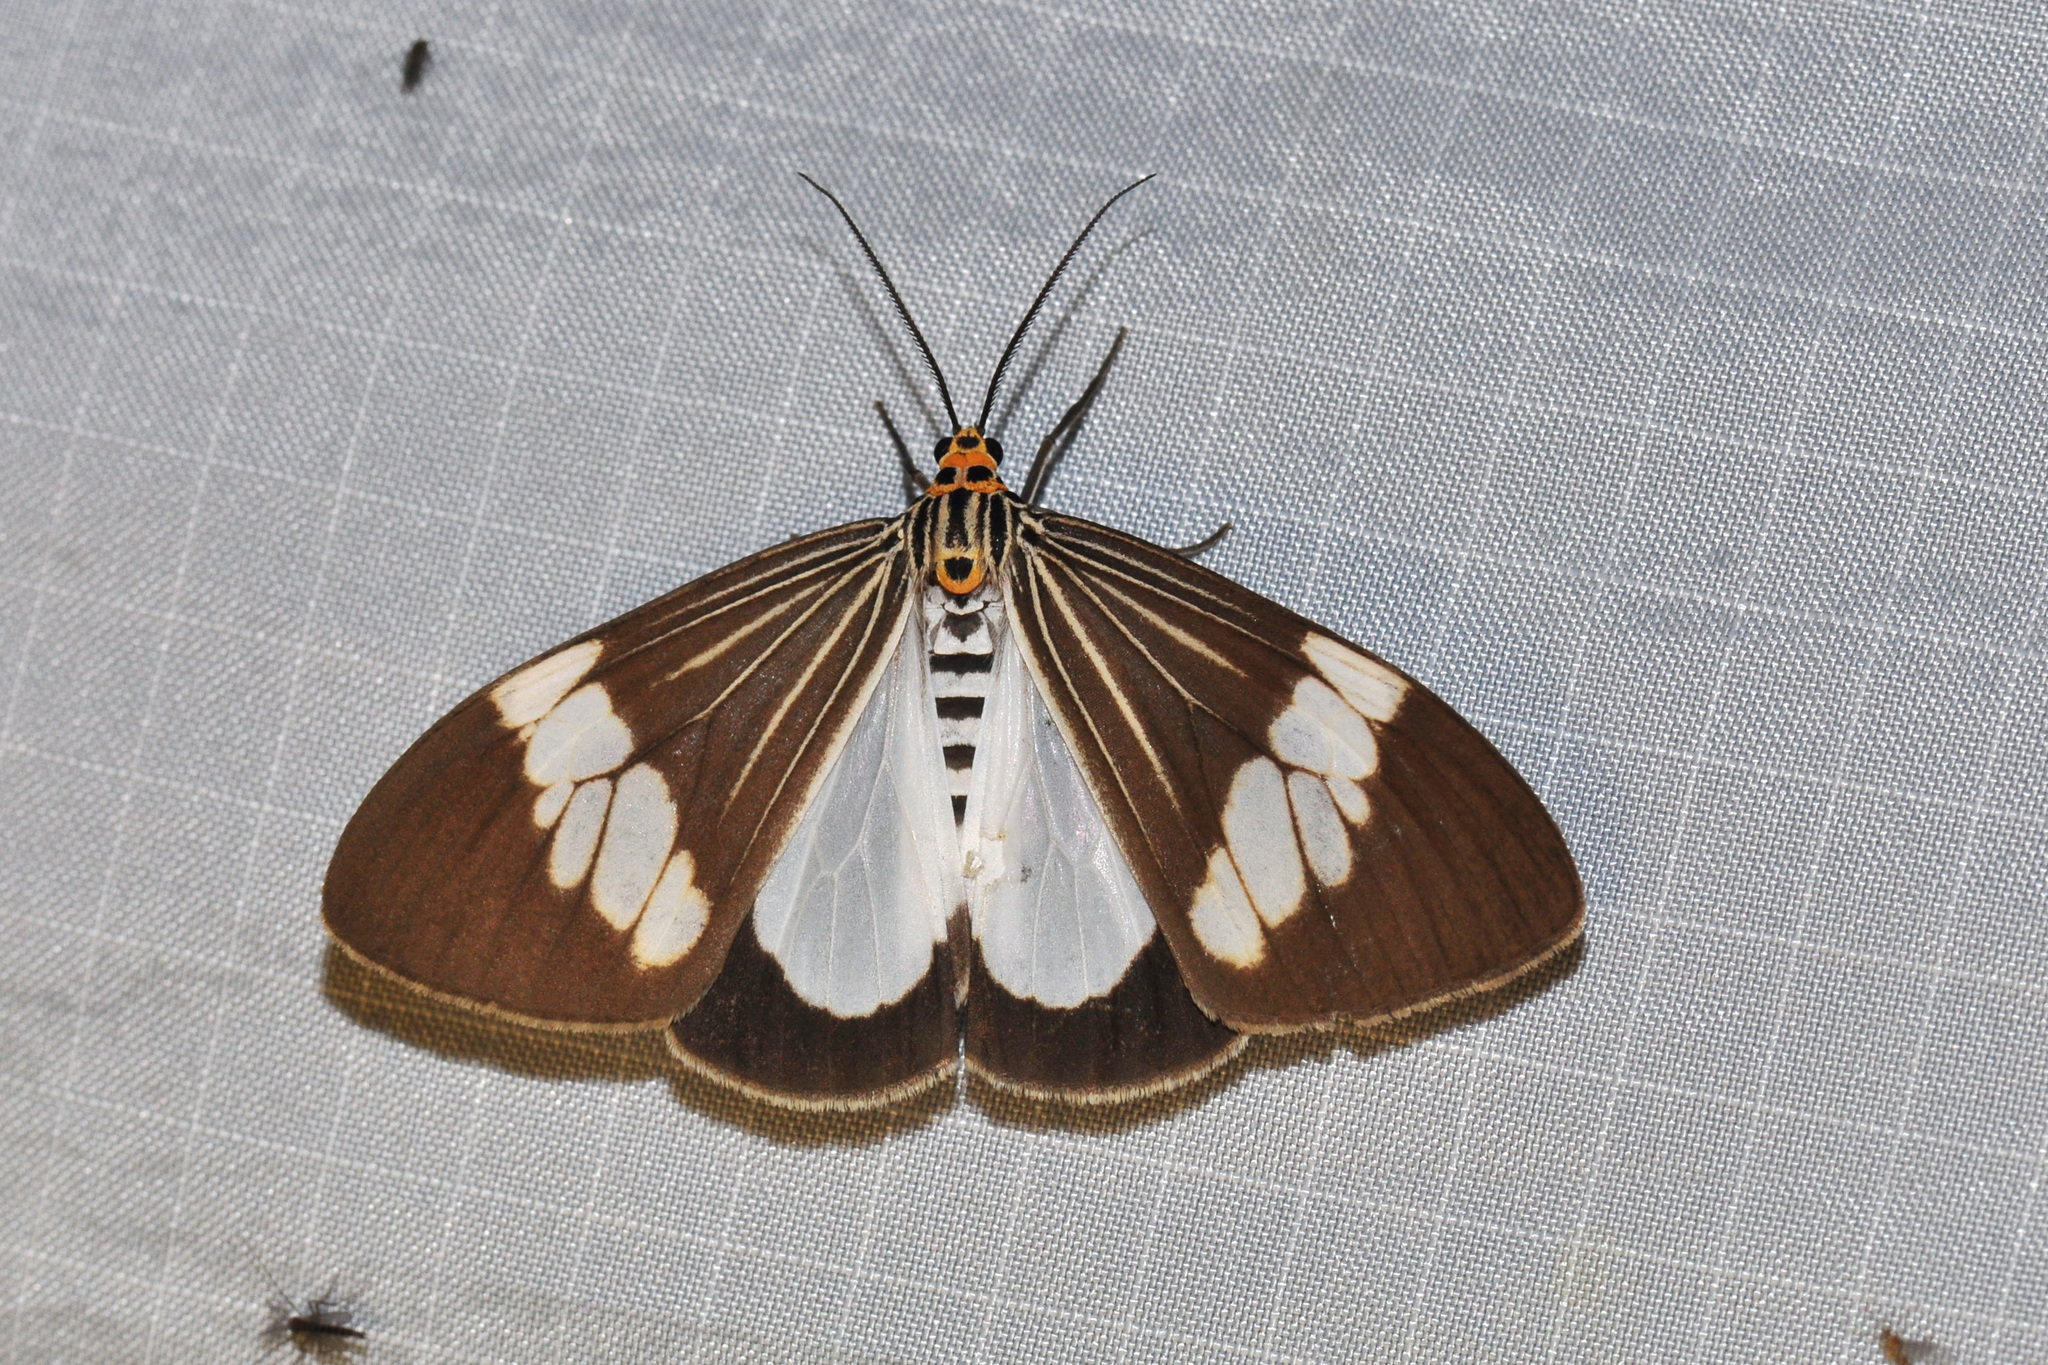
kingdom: Animalia
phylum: Arthropoda
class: Insecta
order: Lepidoptera
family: Erebidae
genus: Nyctemera
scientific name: Nyctemera baulus
